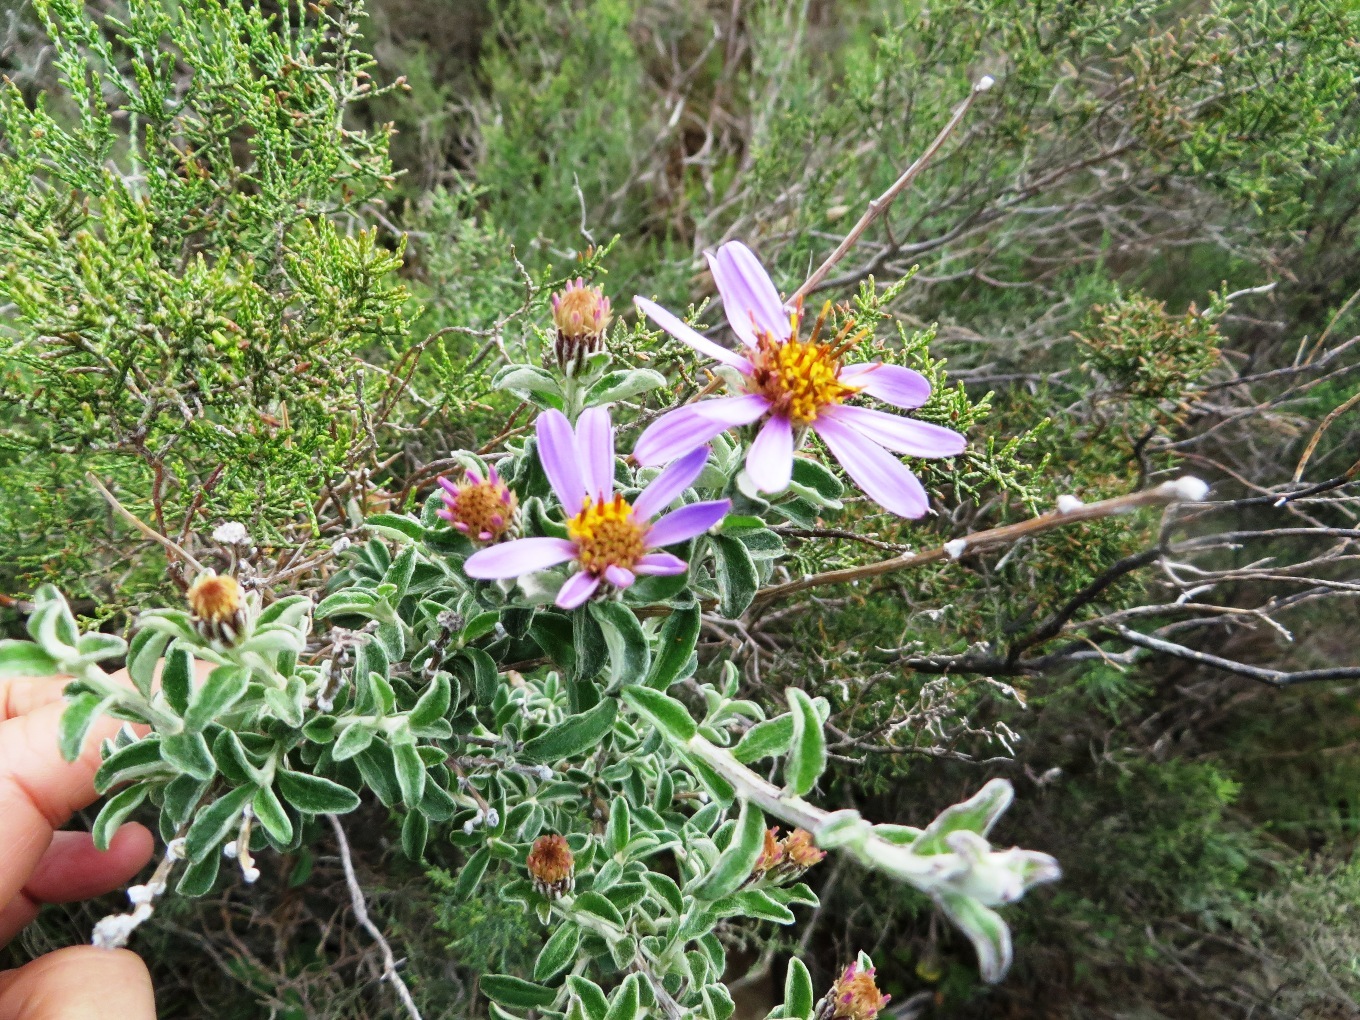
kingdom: Plantae
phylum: Tracheophyta
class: Magnoliopsida
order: Asterales
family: Asteraceae
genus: Printzia
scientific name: Printzia polifolia
